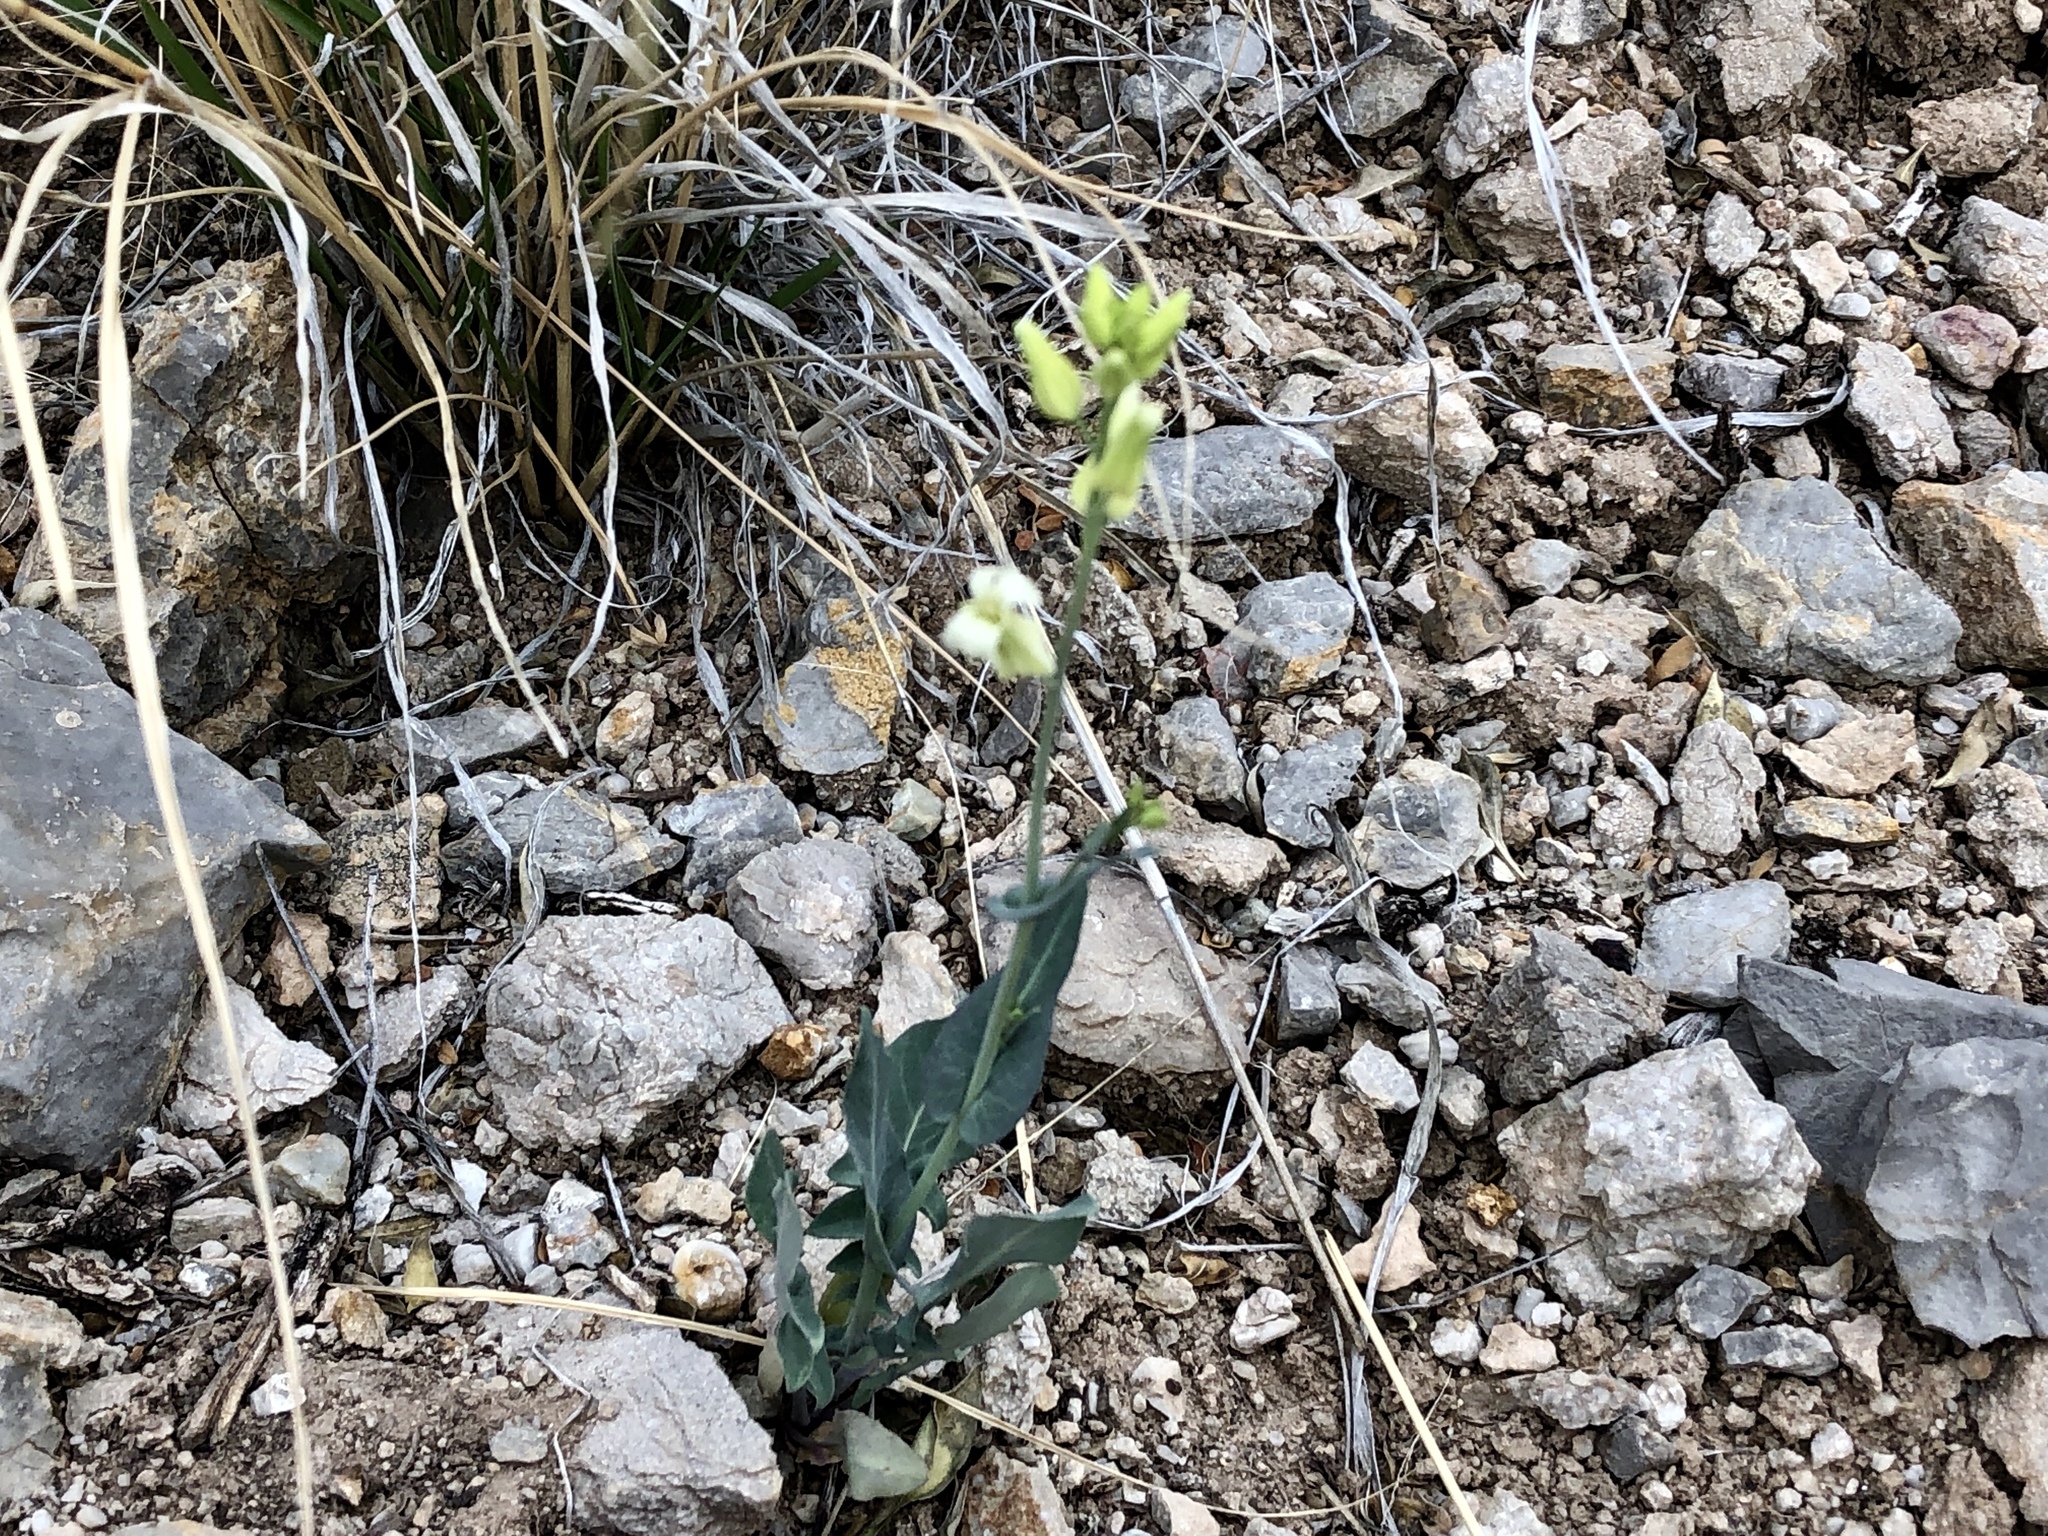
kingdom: Plantae
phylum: Tracheophyta
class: Magnoliopsida
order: Brassicales
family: Brassicaceae
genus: Streptanthus
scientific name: Streptanthus carinatus
